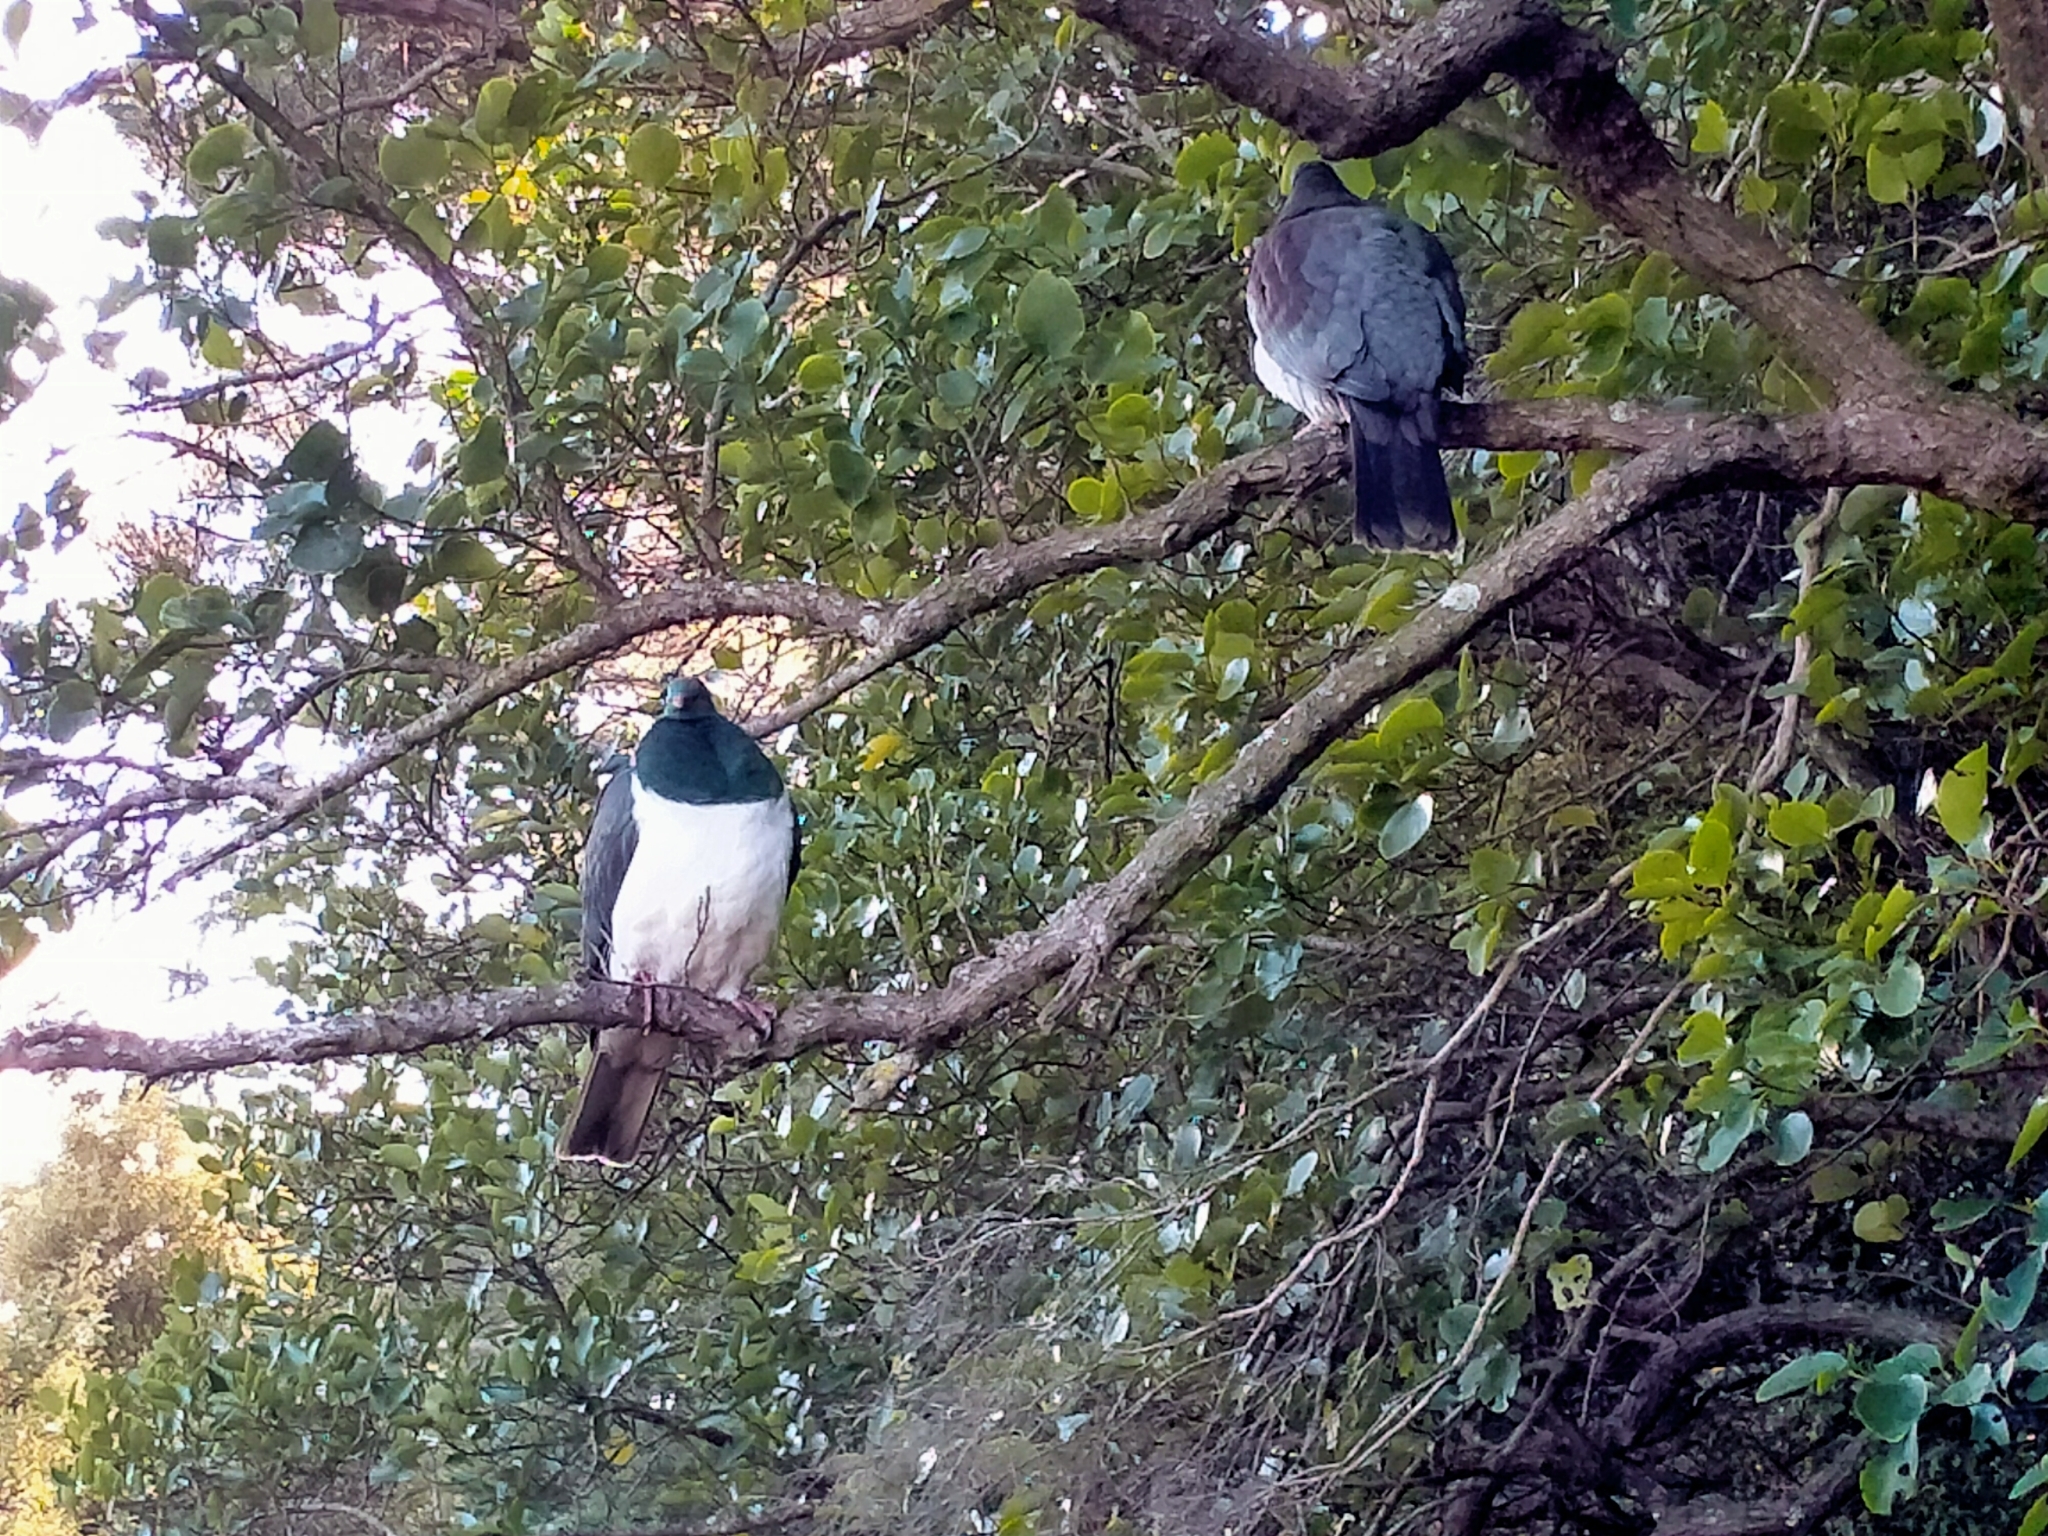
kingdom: Animalia
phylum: Chordata
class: Aves
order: Columbiformes
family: Columbidae
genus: Hemiphaga
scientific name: Hemiphaga novaeseelandiae
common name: New zealand pigeon
